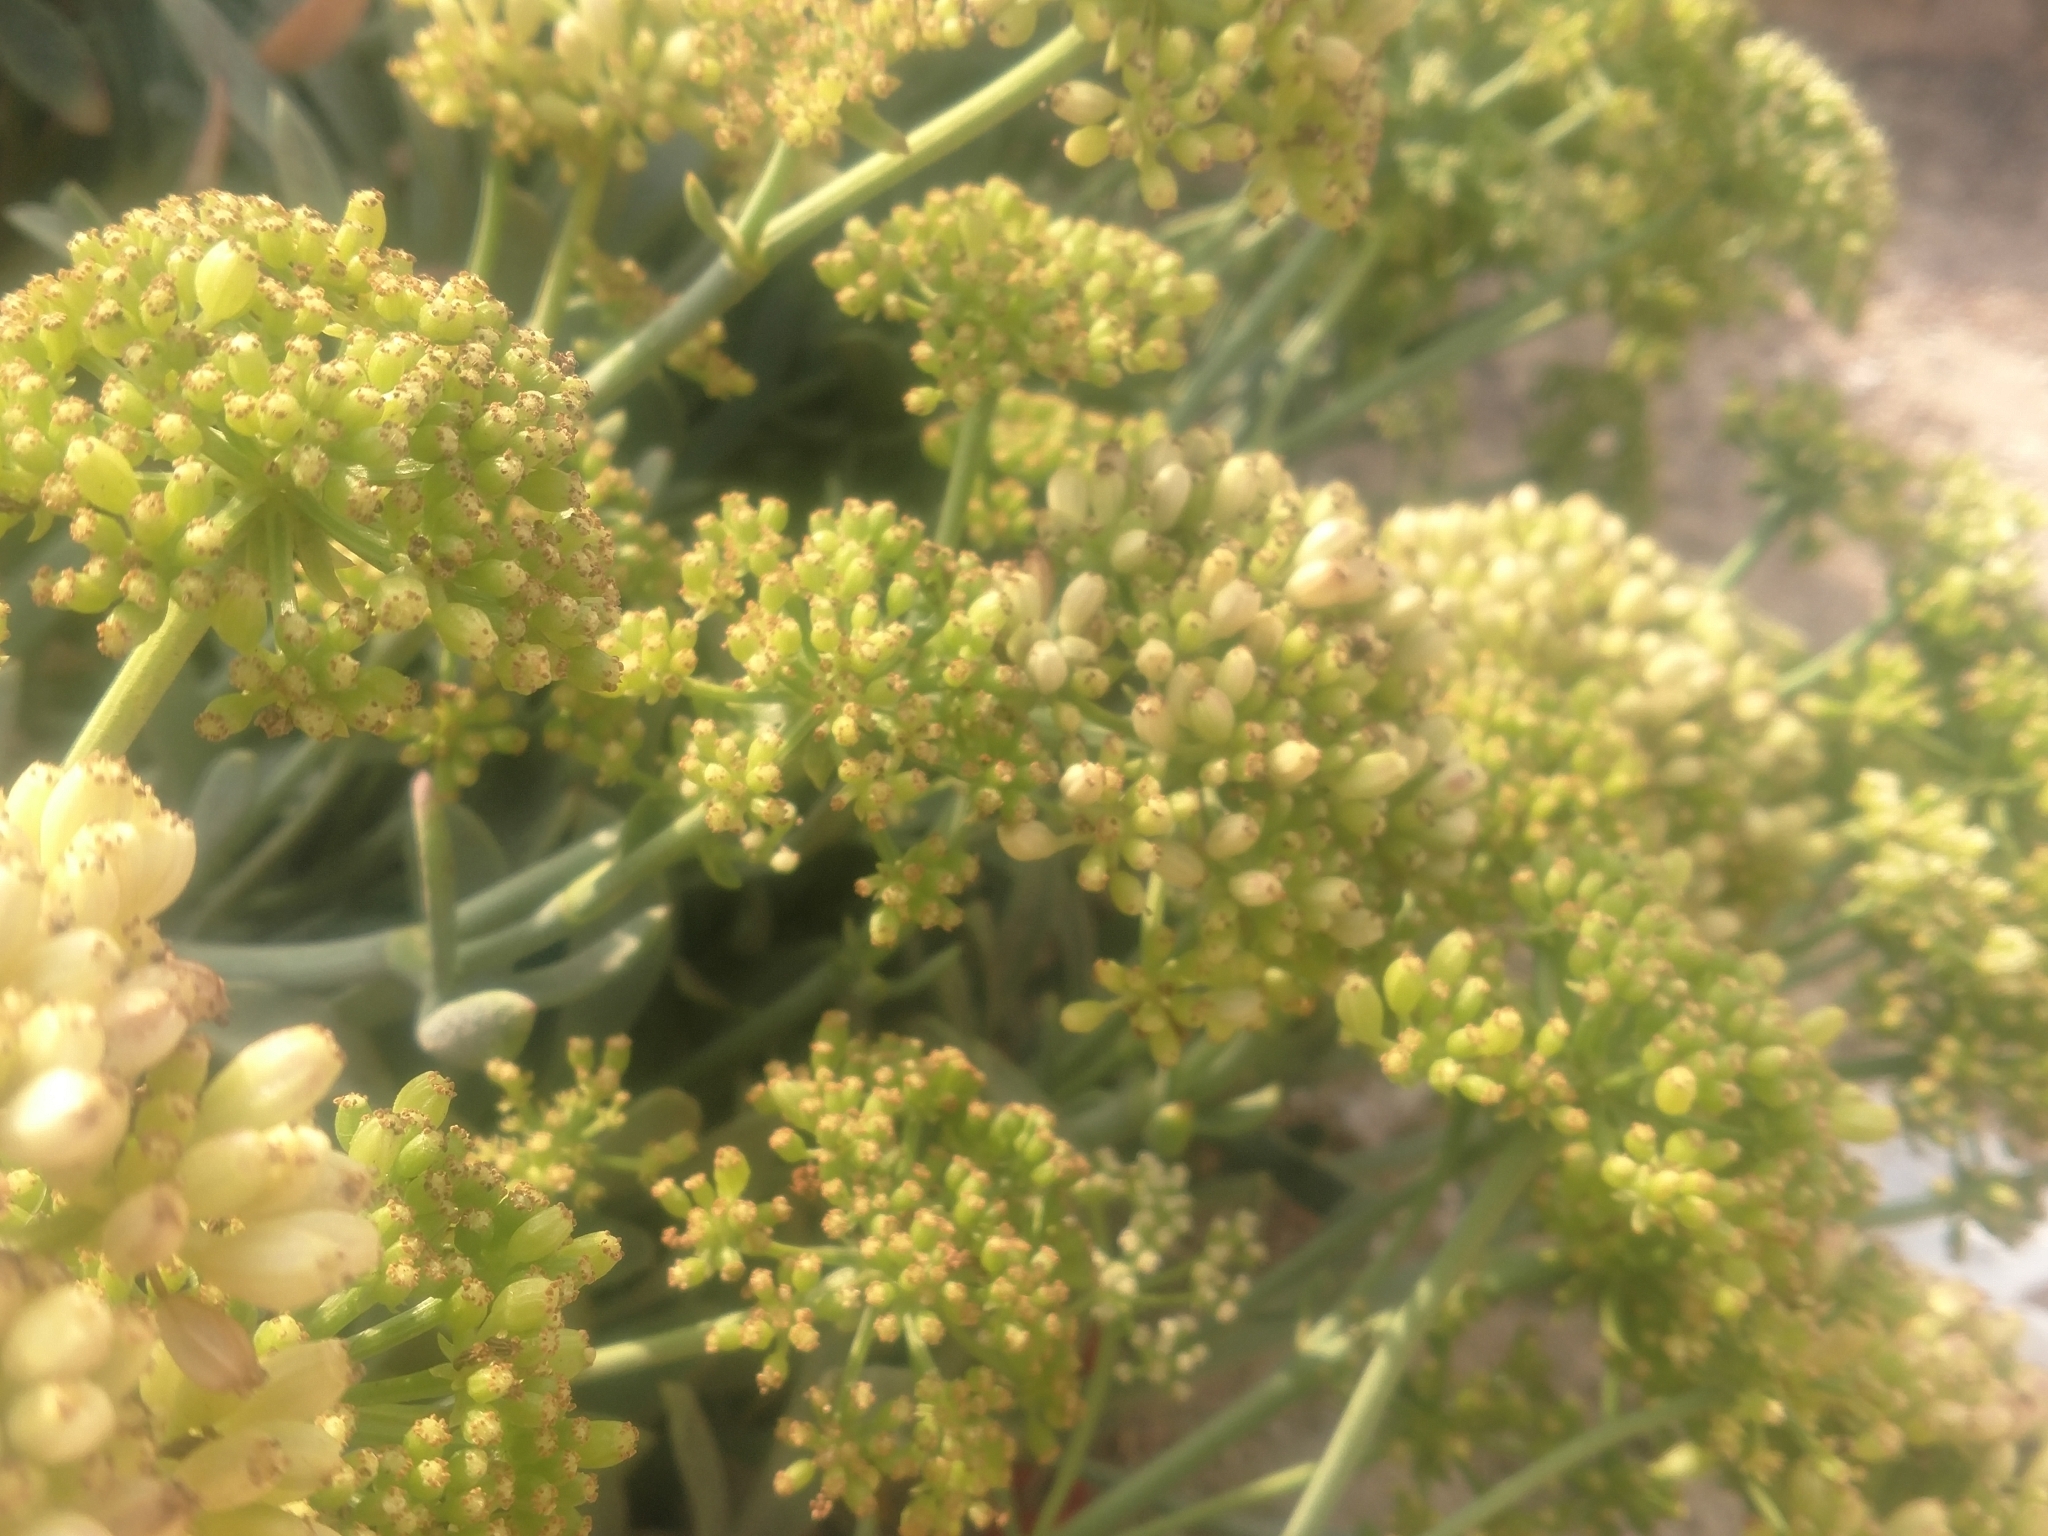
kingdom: Plantae
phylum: Tracheophyta
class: Magnoliopsida
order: Apiales
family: Apiaceae
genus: Crithmum
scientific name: Crithmum maritimum
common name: Rock samphire
